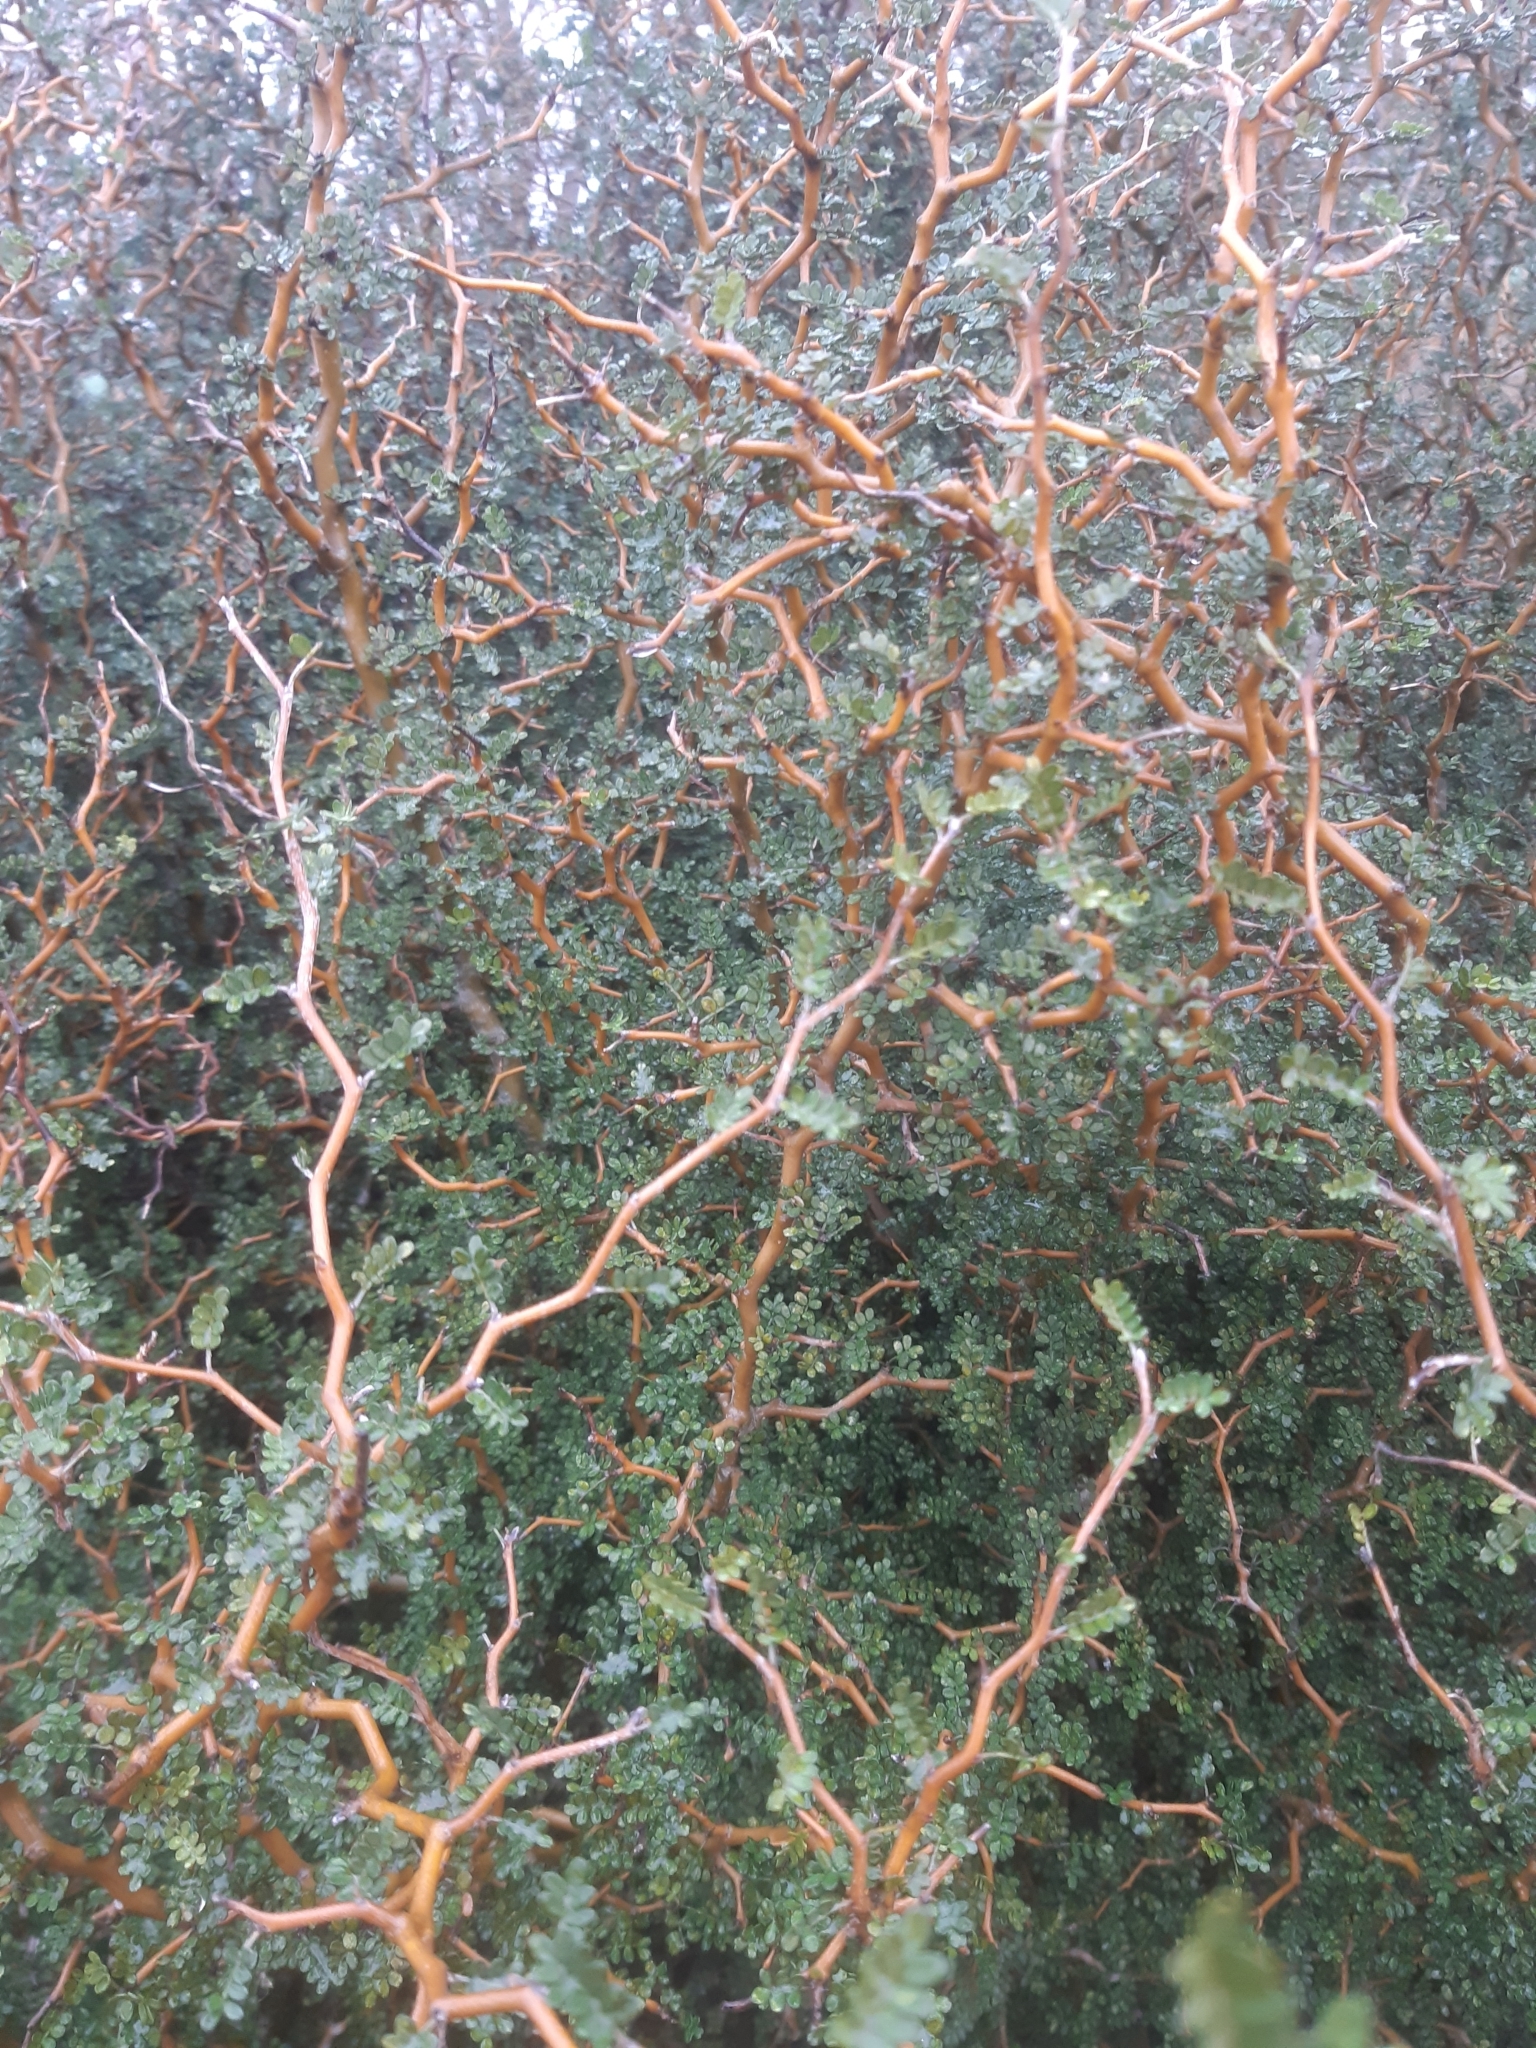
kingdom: Plantae
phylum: Tracheophyta
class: Magnoliopsida
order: Fabales
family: Fabaceae
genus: Sophora
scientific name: Sophora prostrata
